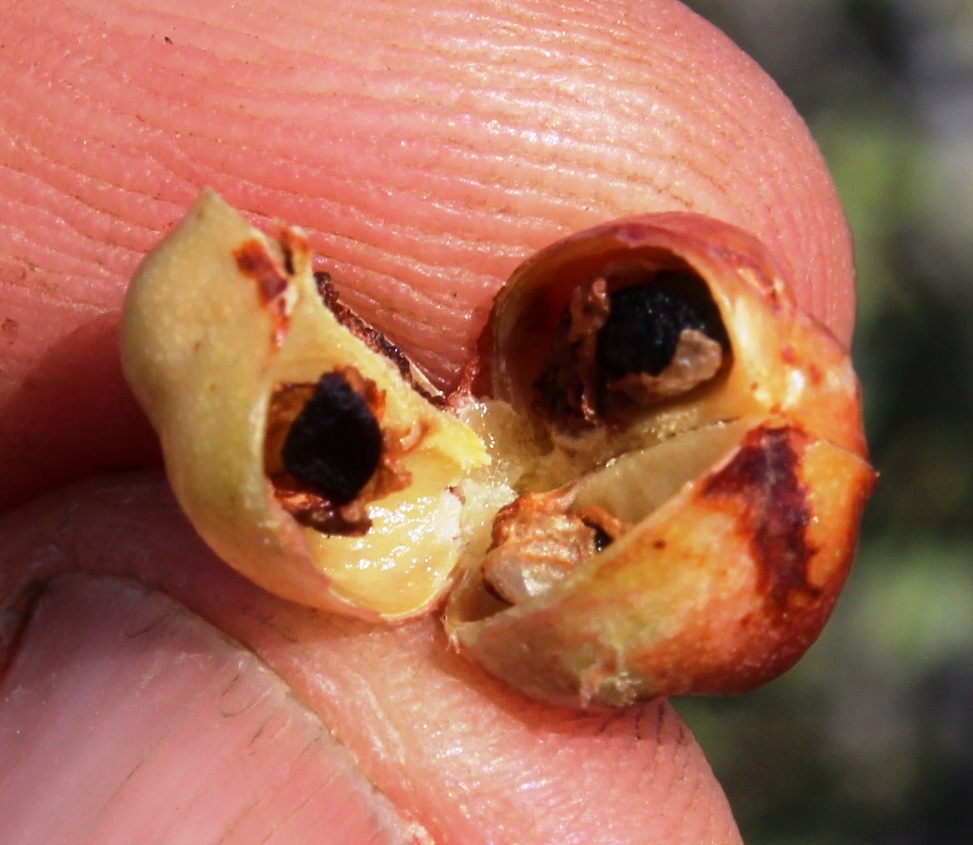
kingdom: Plantae
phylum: Tracheophyta
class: Magnoliopsida
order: Celastrales
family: Celastraceae
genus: Gloveria
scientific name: Gloveria integrifolia
